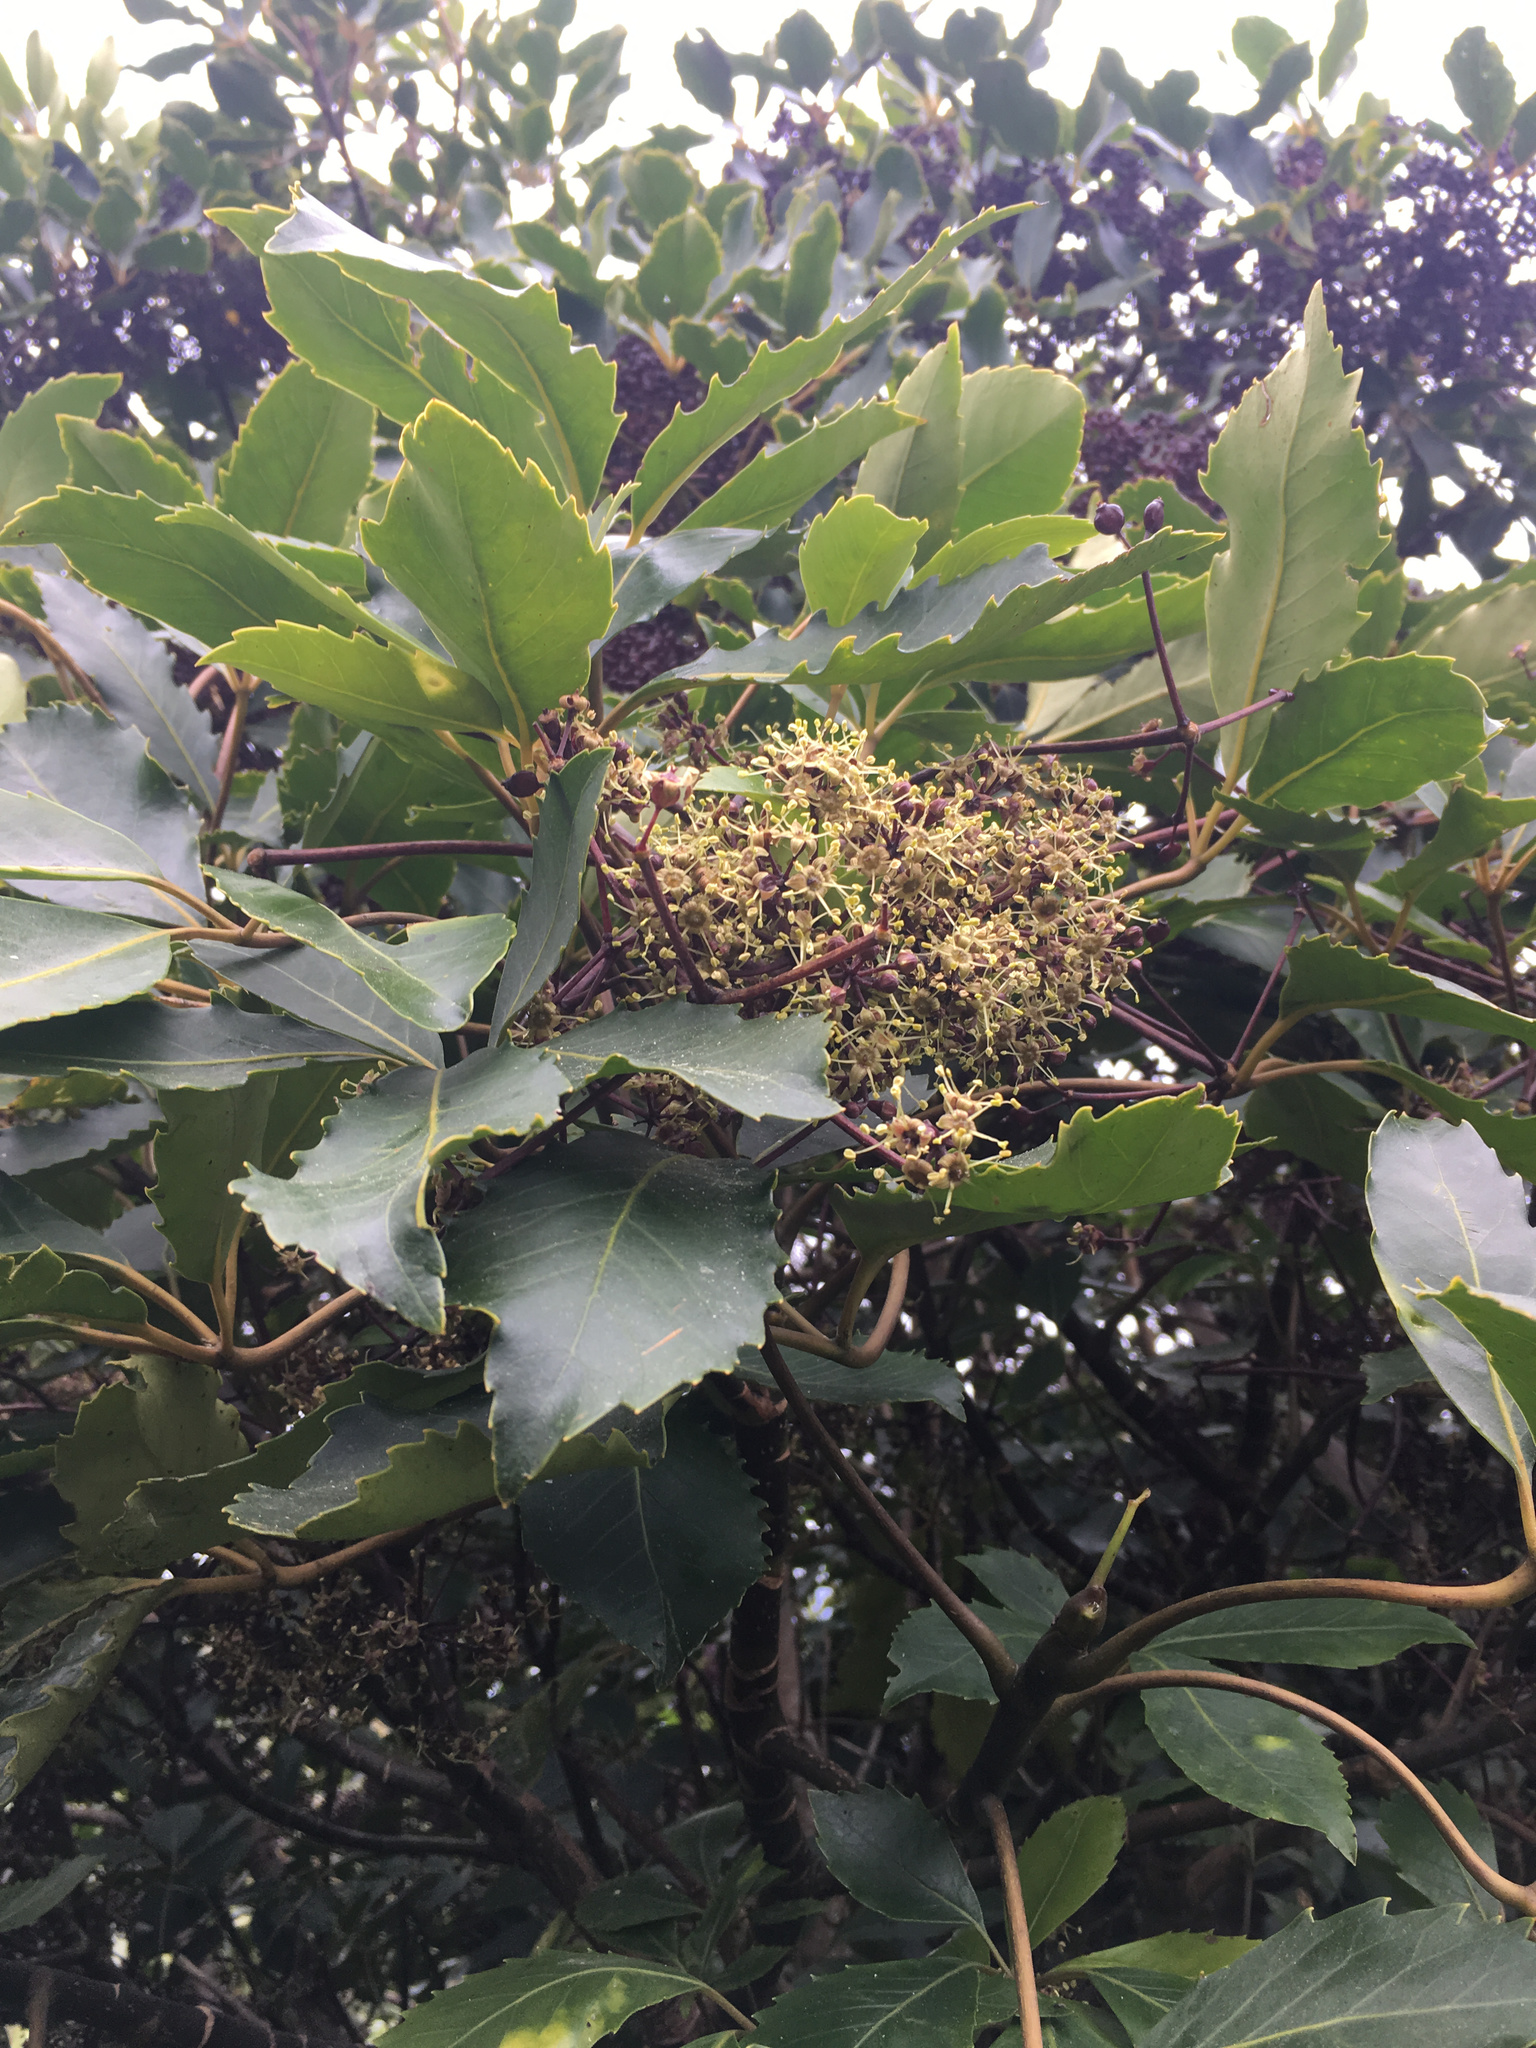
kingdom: Plantae
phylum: Tracheophyta
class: Magnoliopsida
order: Apiales
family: Araliaceae
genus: Neopanax
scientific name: Neopanax arboreus
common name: Five-fingers
